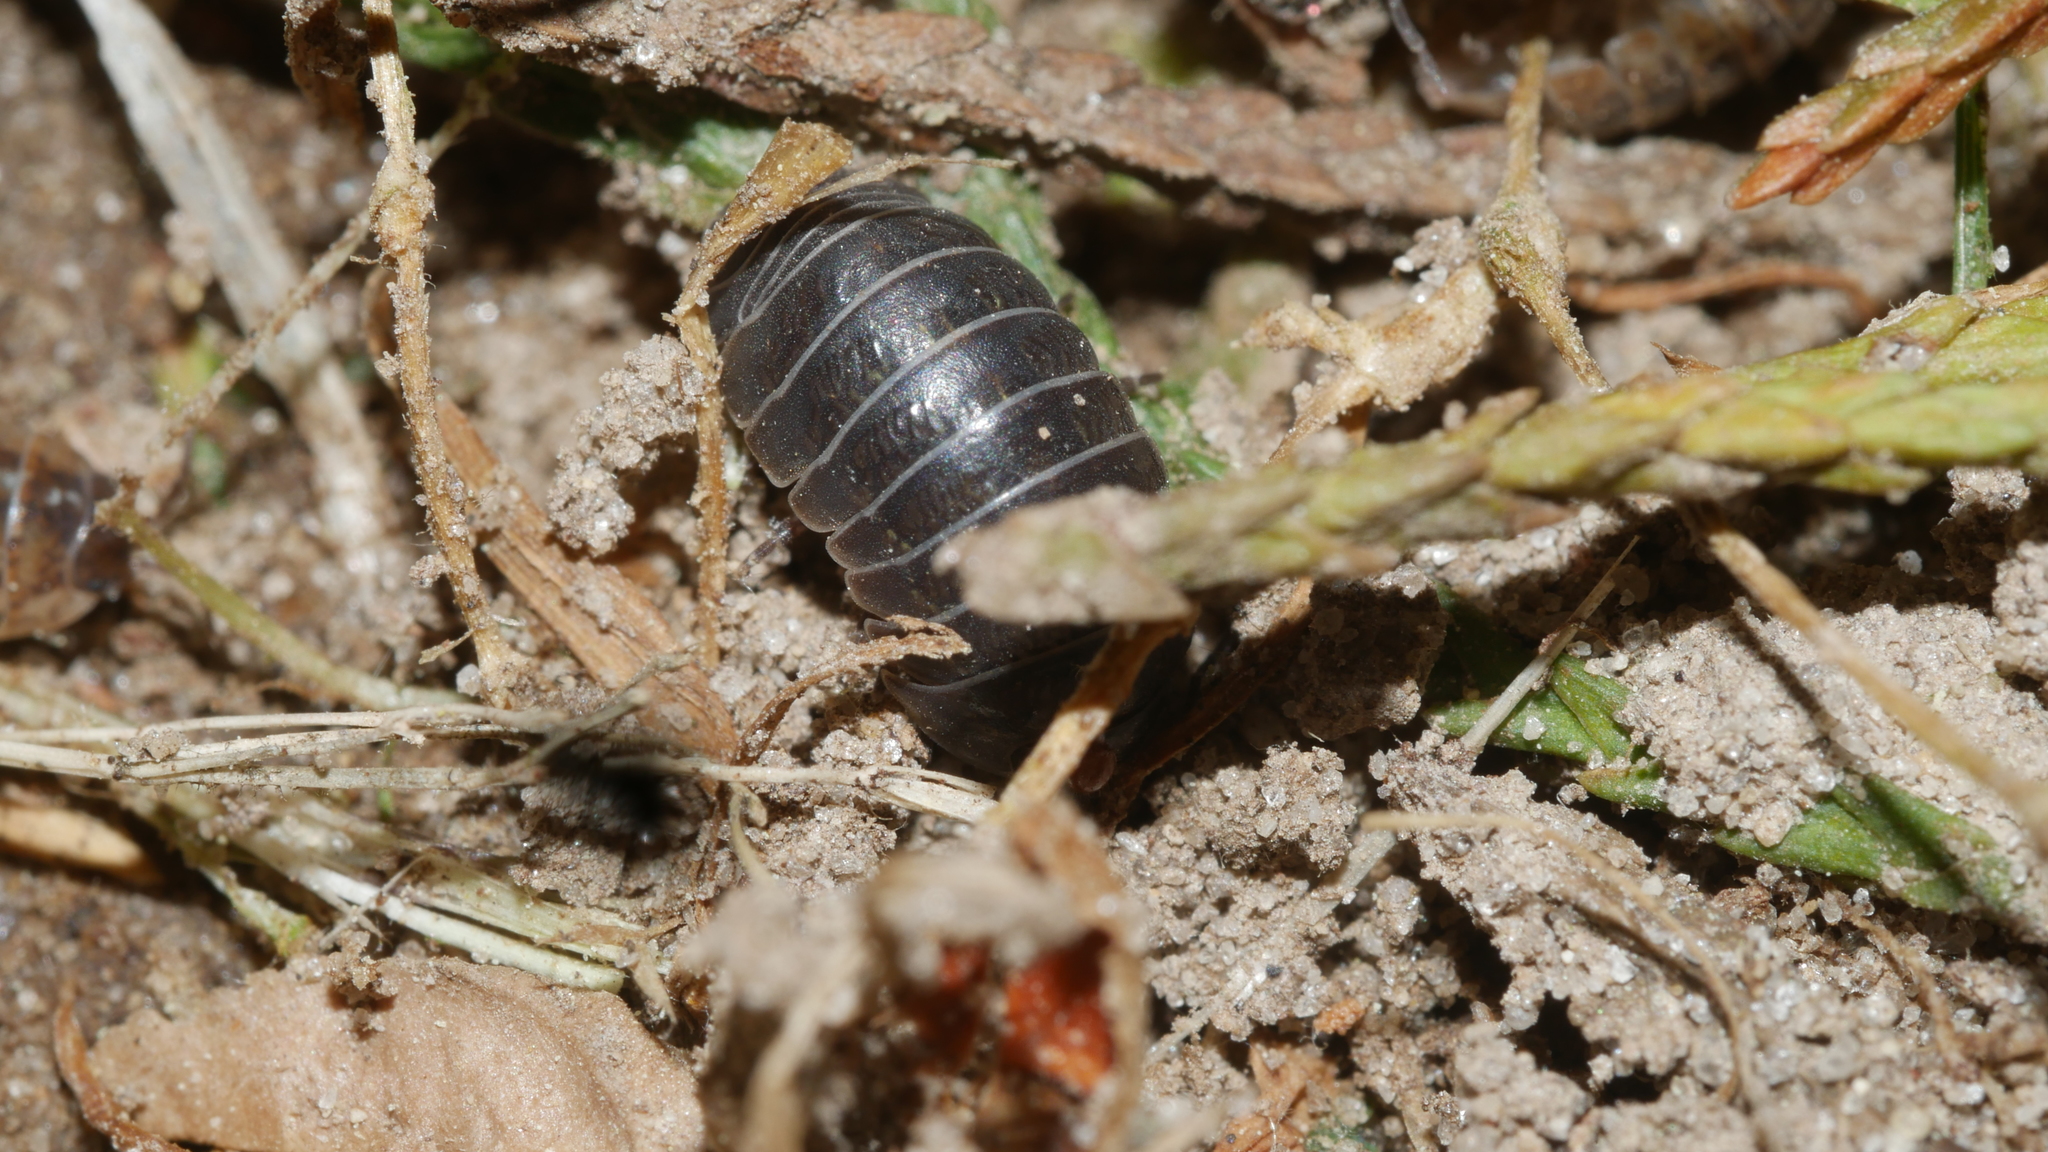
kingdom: Animalia
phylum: Arthropoda
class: Malacostraca
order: Isopoda
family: Armadillidiidae
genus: Armadillidium
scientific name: Armadillidium vulgare
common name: Common pill woodlouse
